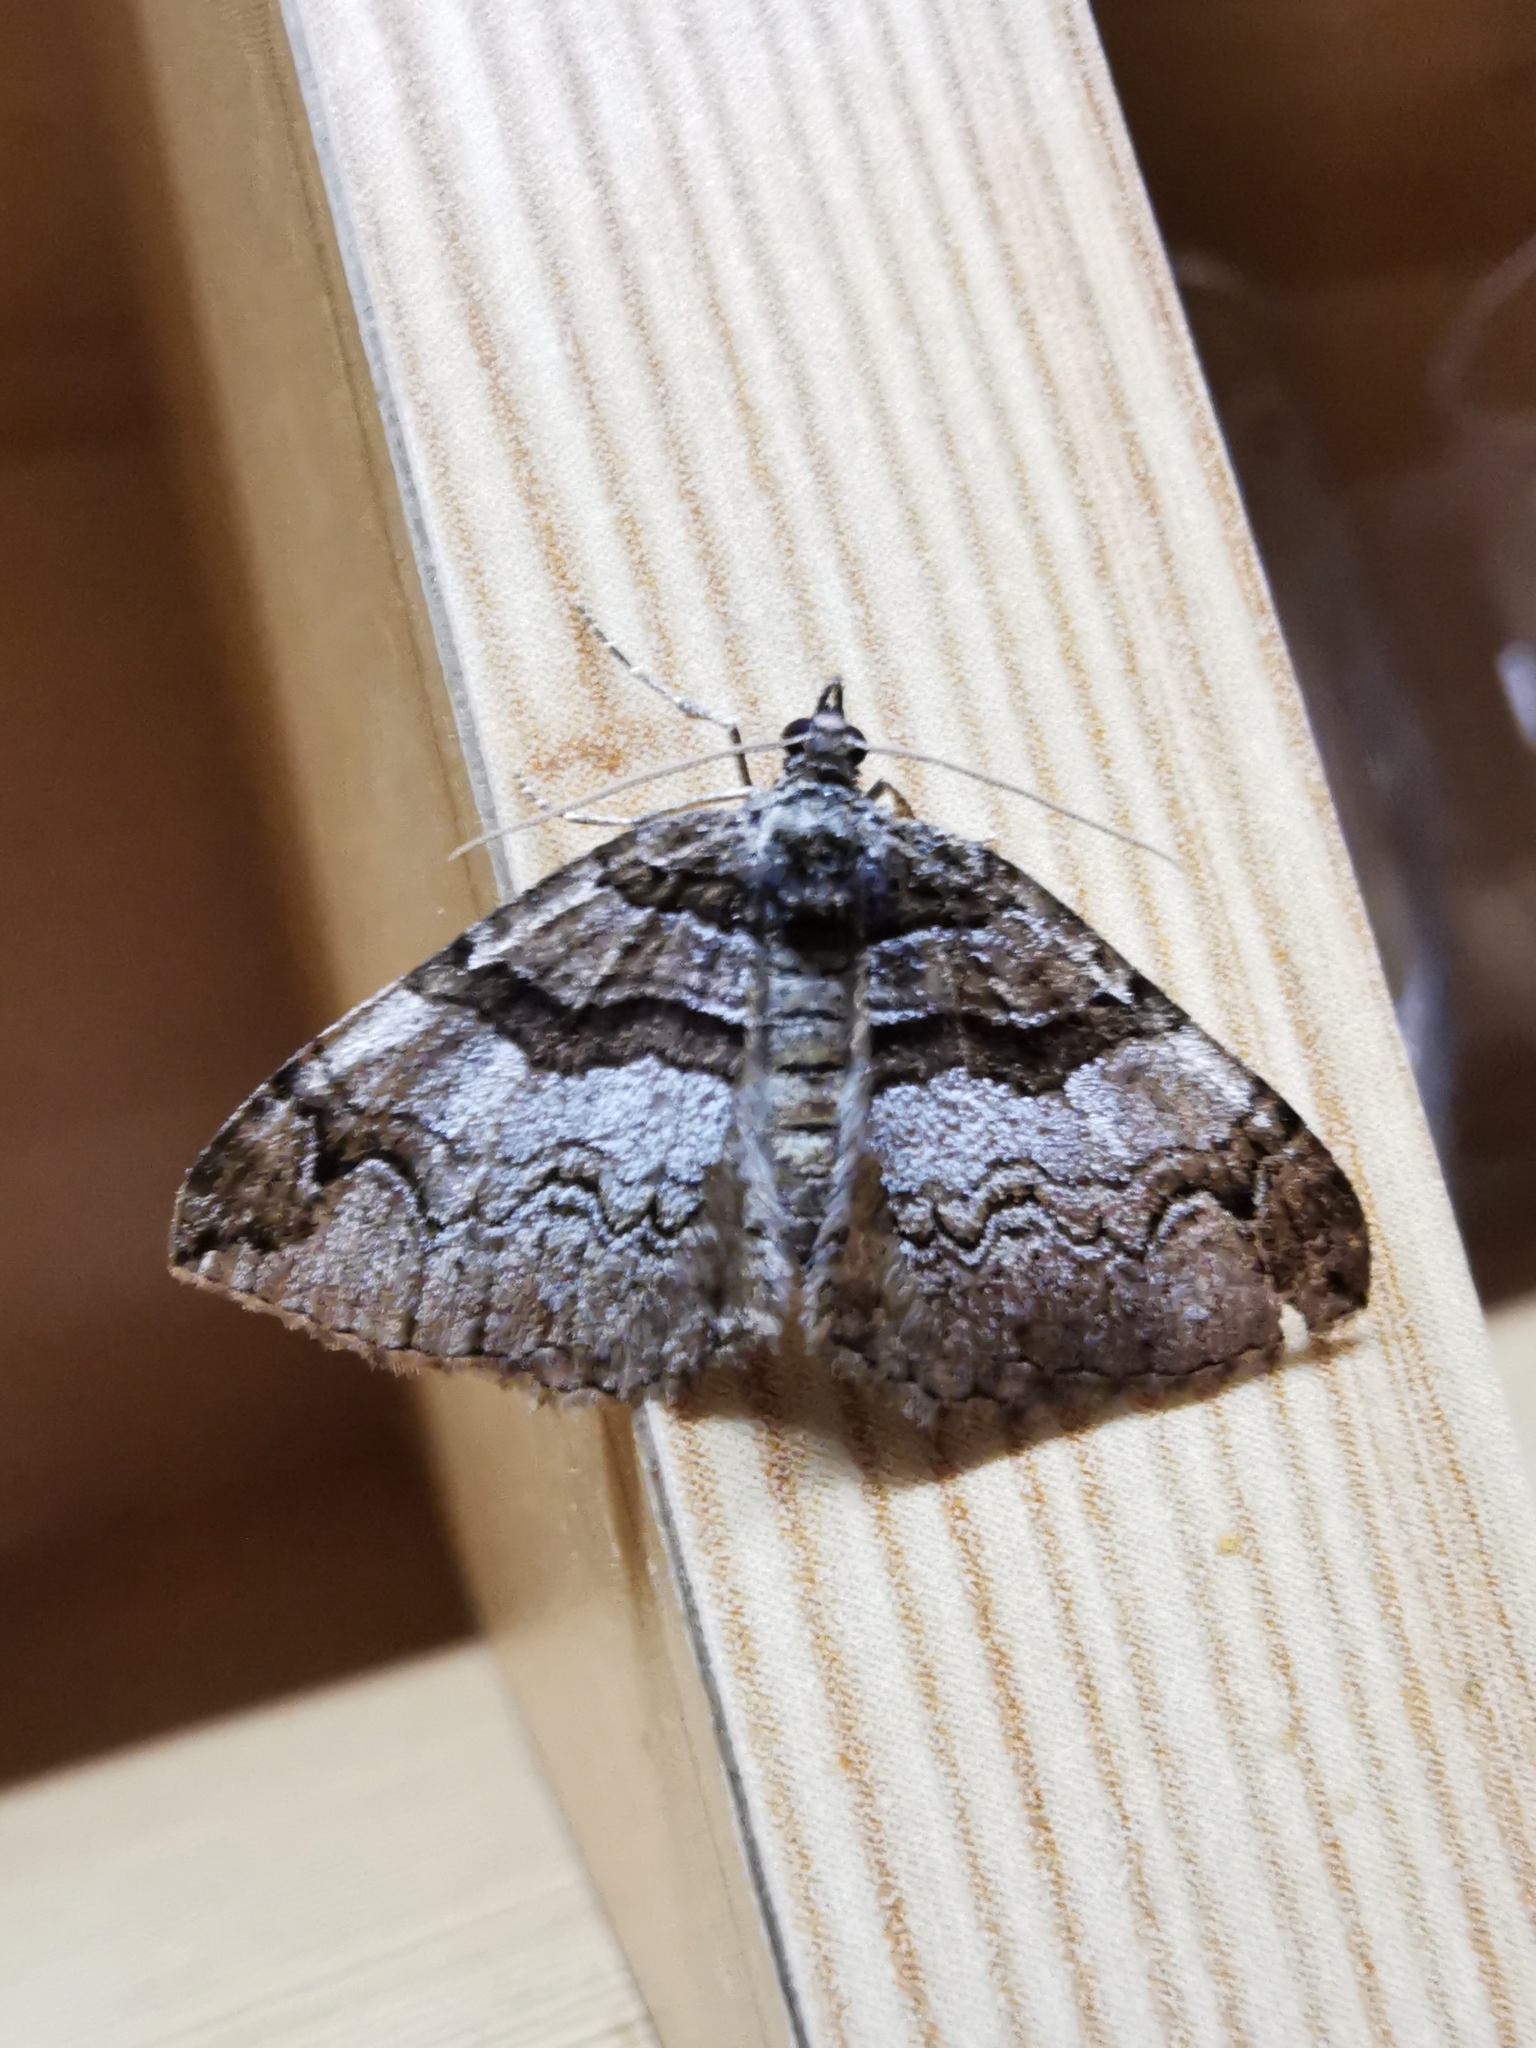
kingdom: Animalia
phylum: Arthropoda
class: Insecta
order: Lepidoptera
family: Geometridae
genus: Pareulype
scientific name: Pareulype berberata
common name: Barberry carpet
